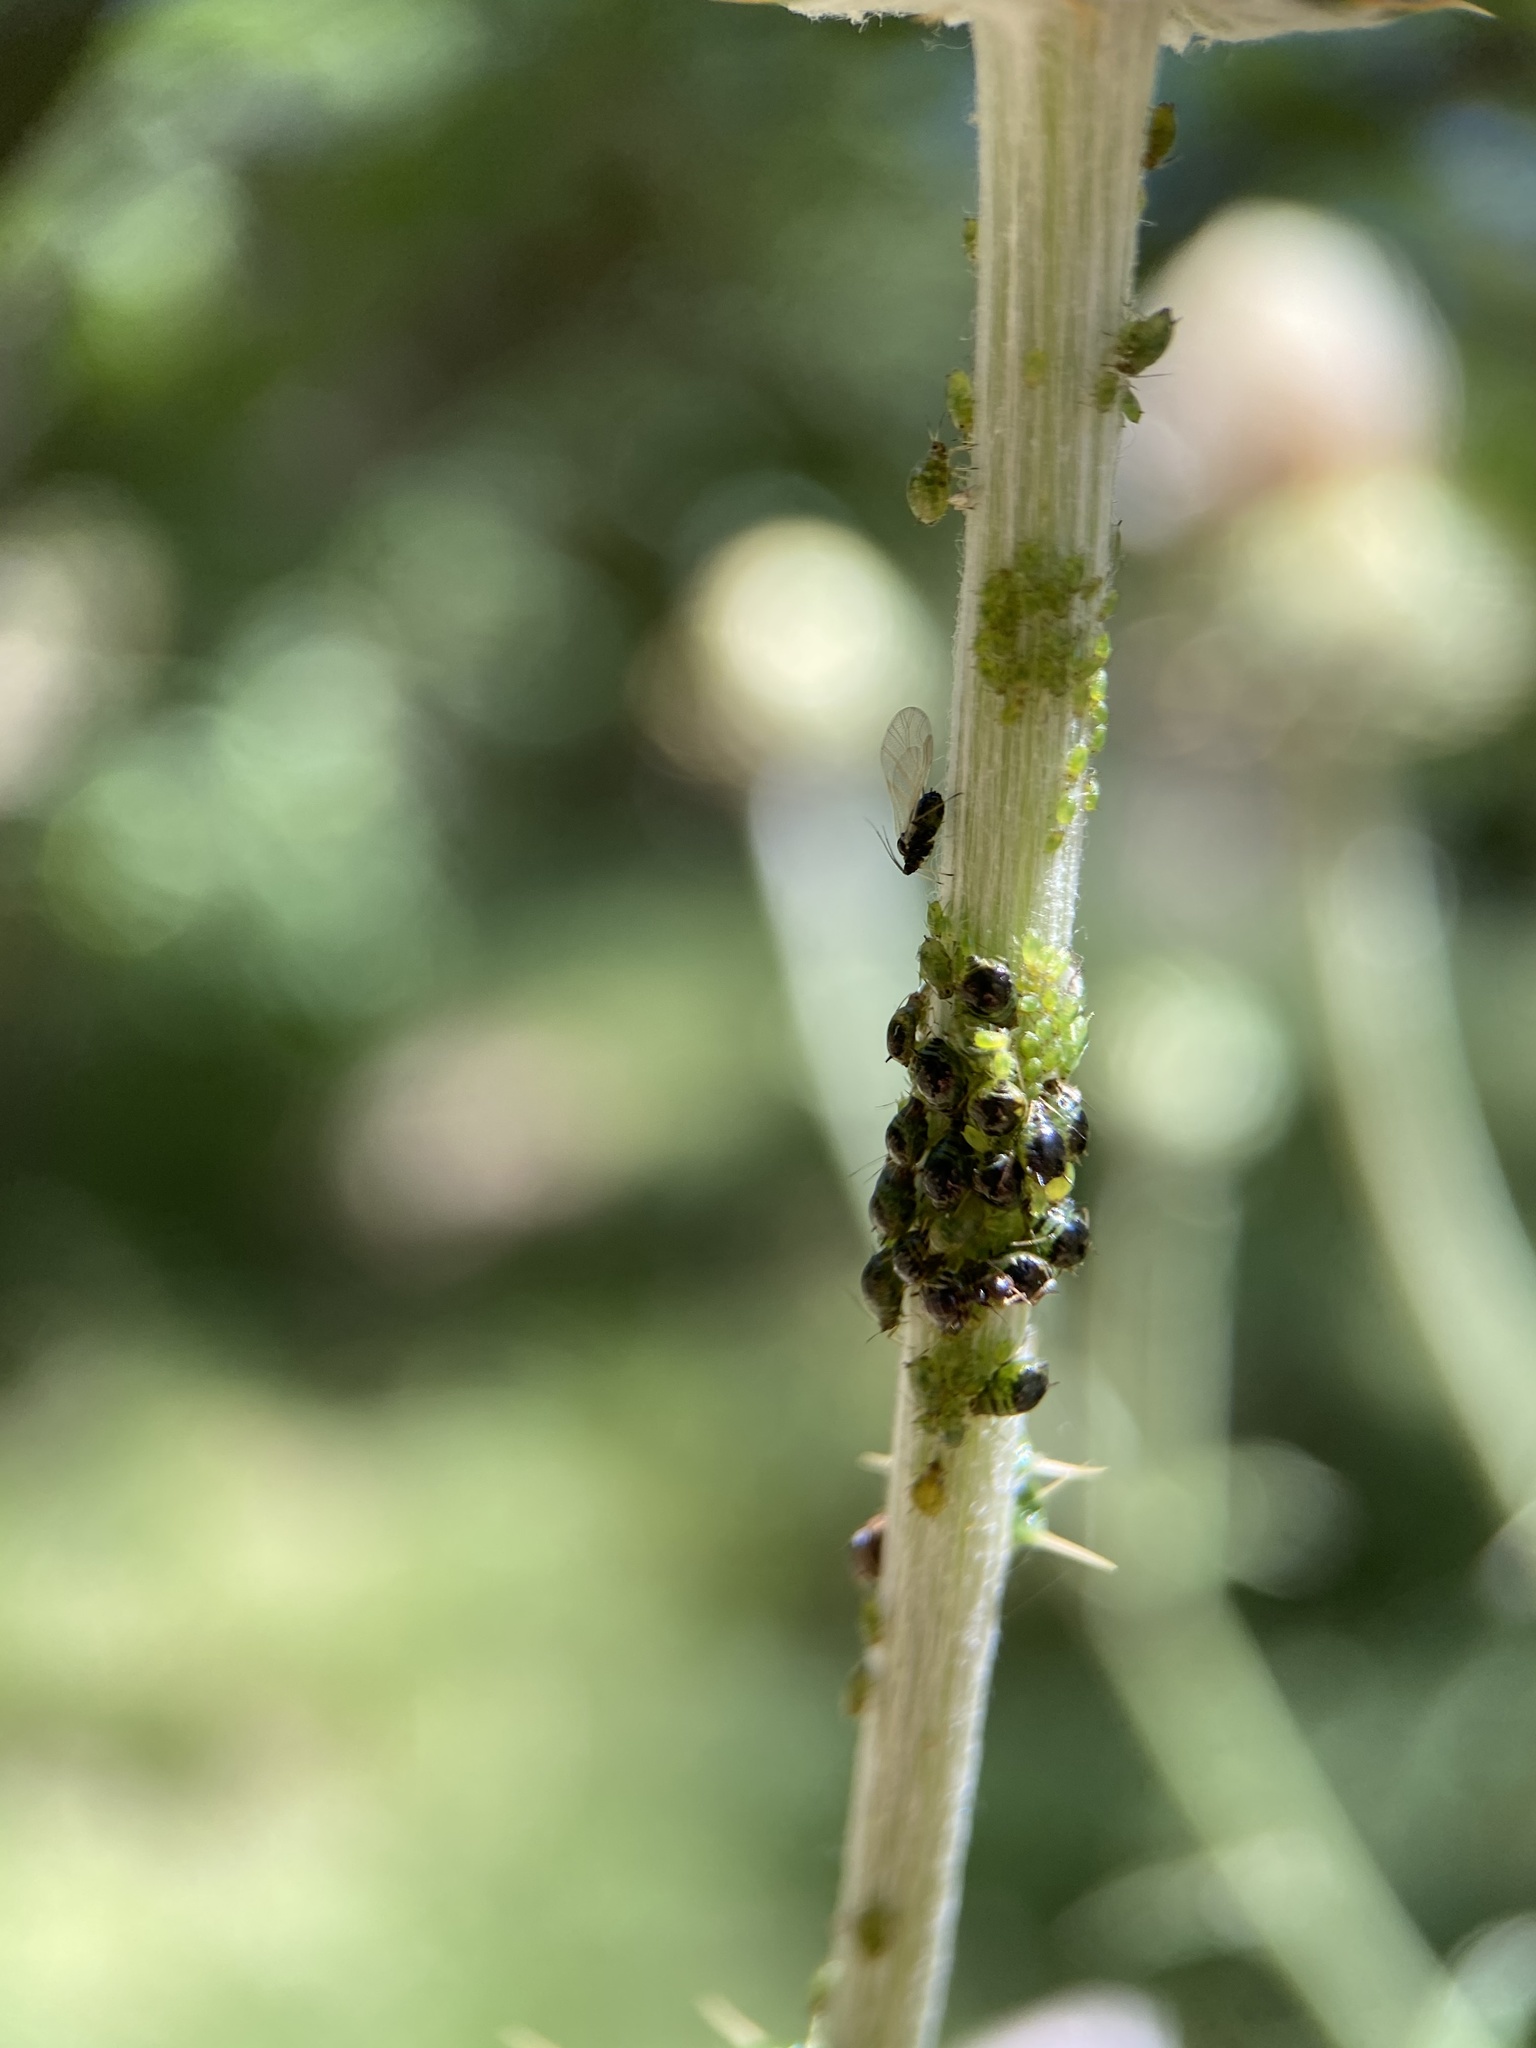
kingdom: Animalia
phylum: Arthropoda
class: Insecta
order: Hemiptera
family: Aphididae
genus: Brachycaudus
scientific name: Brachycaudus cardui
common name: Thistle aphid
